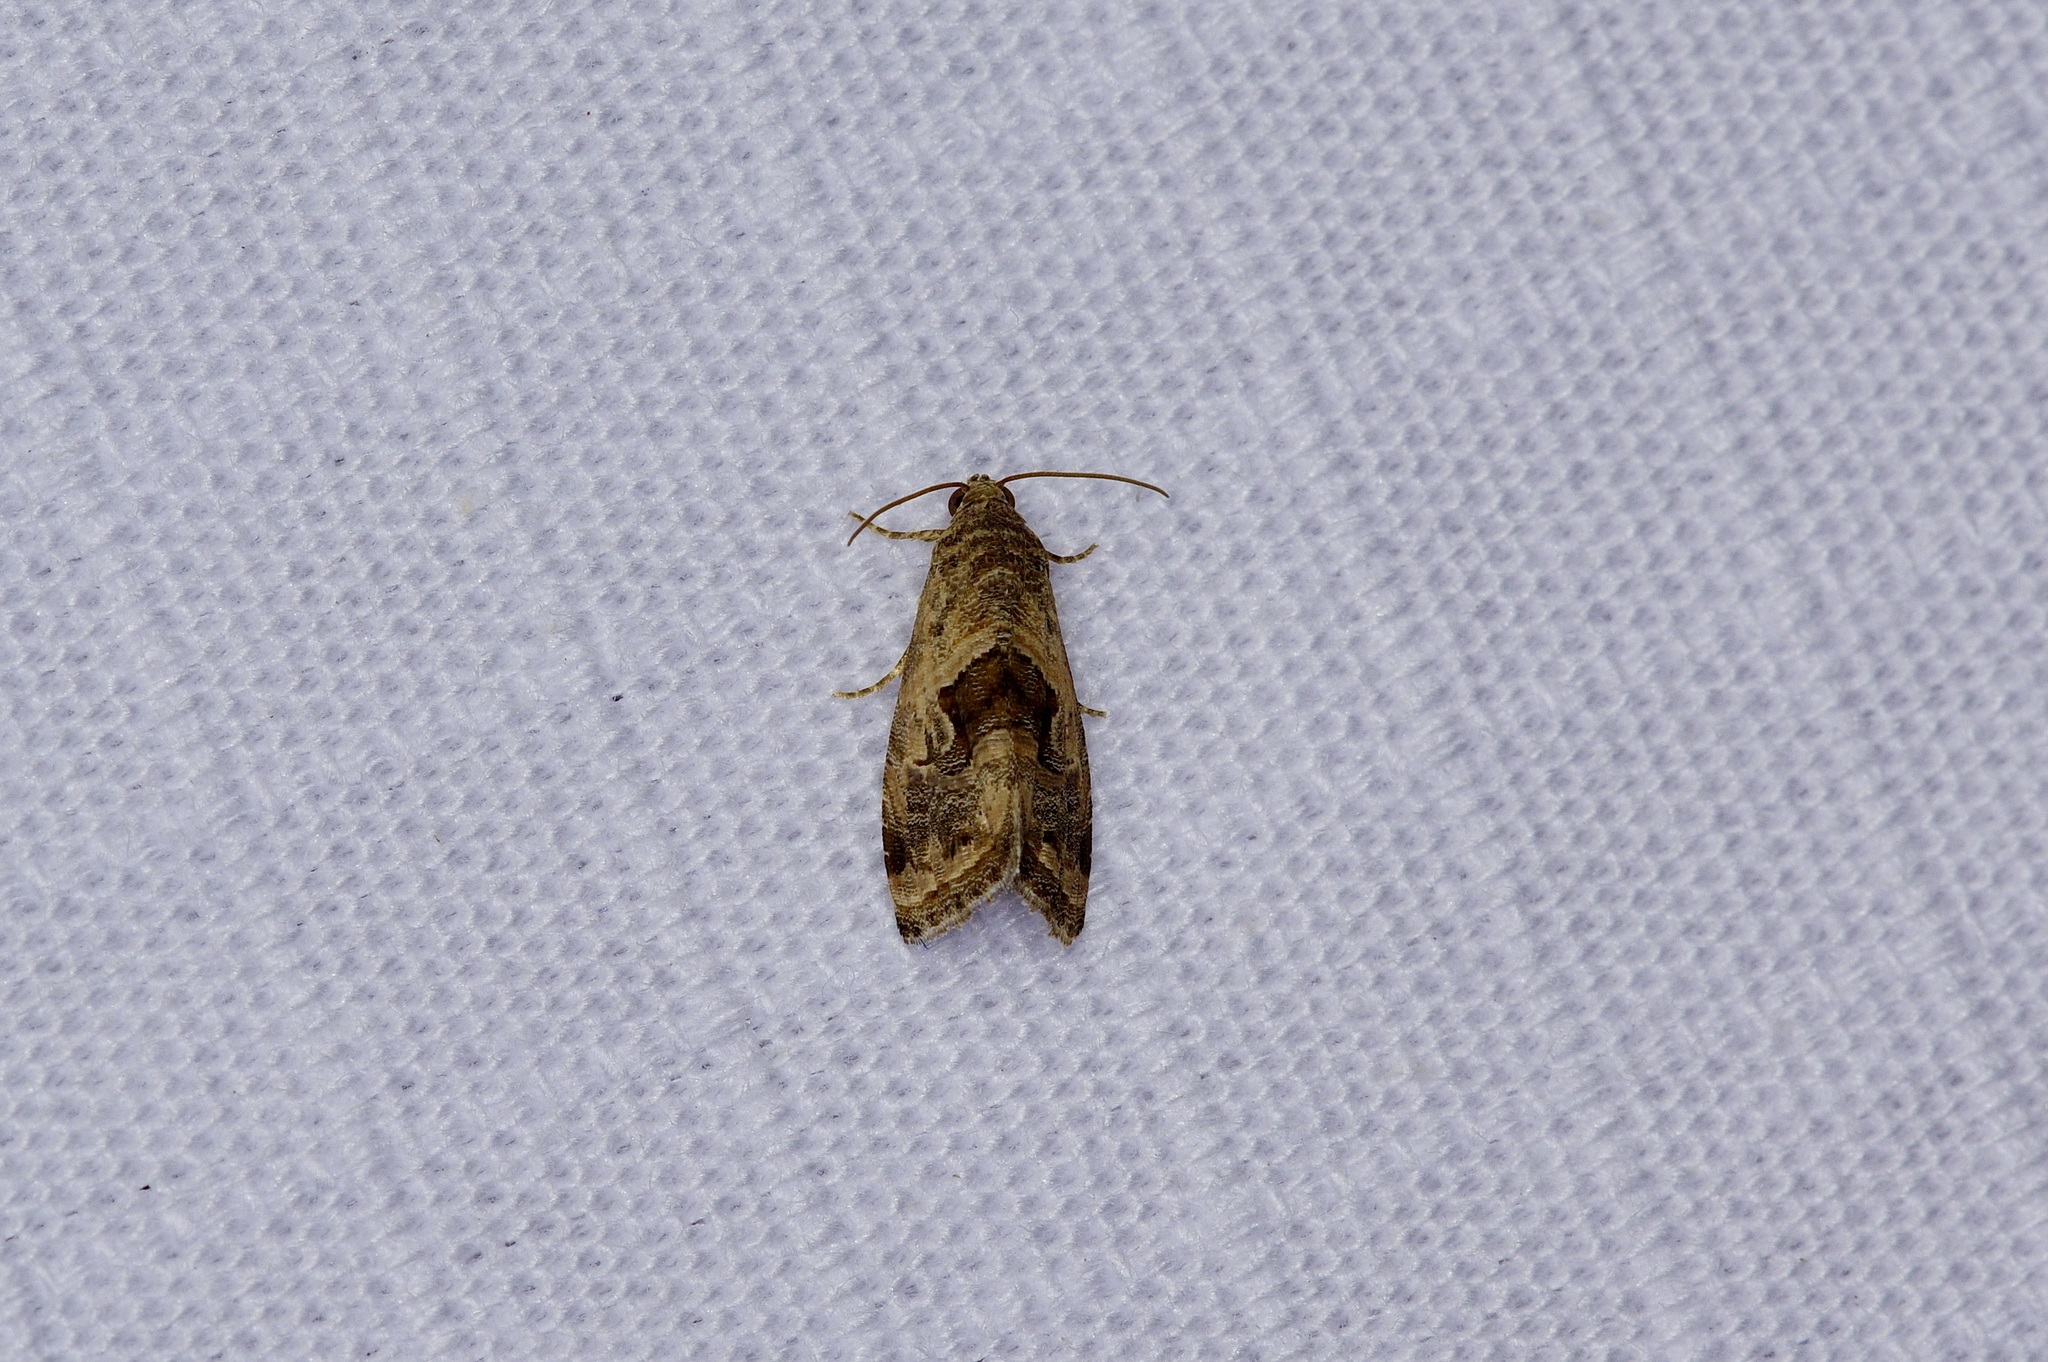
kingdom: Animalia
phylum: Arthropoda
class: Insecta
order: Lepidoptera
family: Noctuidae
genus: Tripudia
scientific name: Tripudia quadrifera
